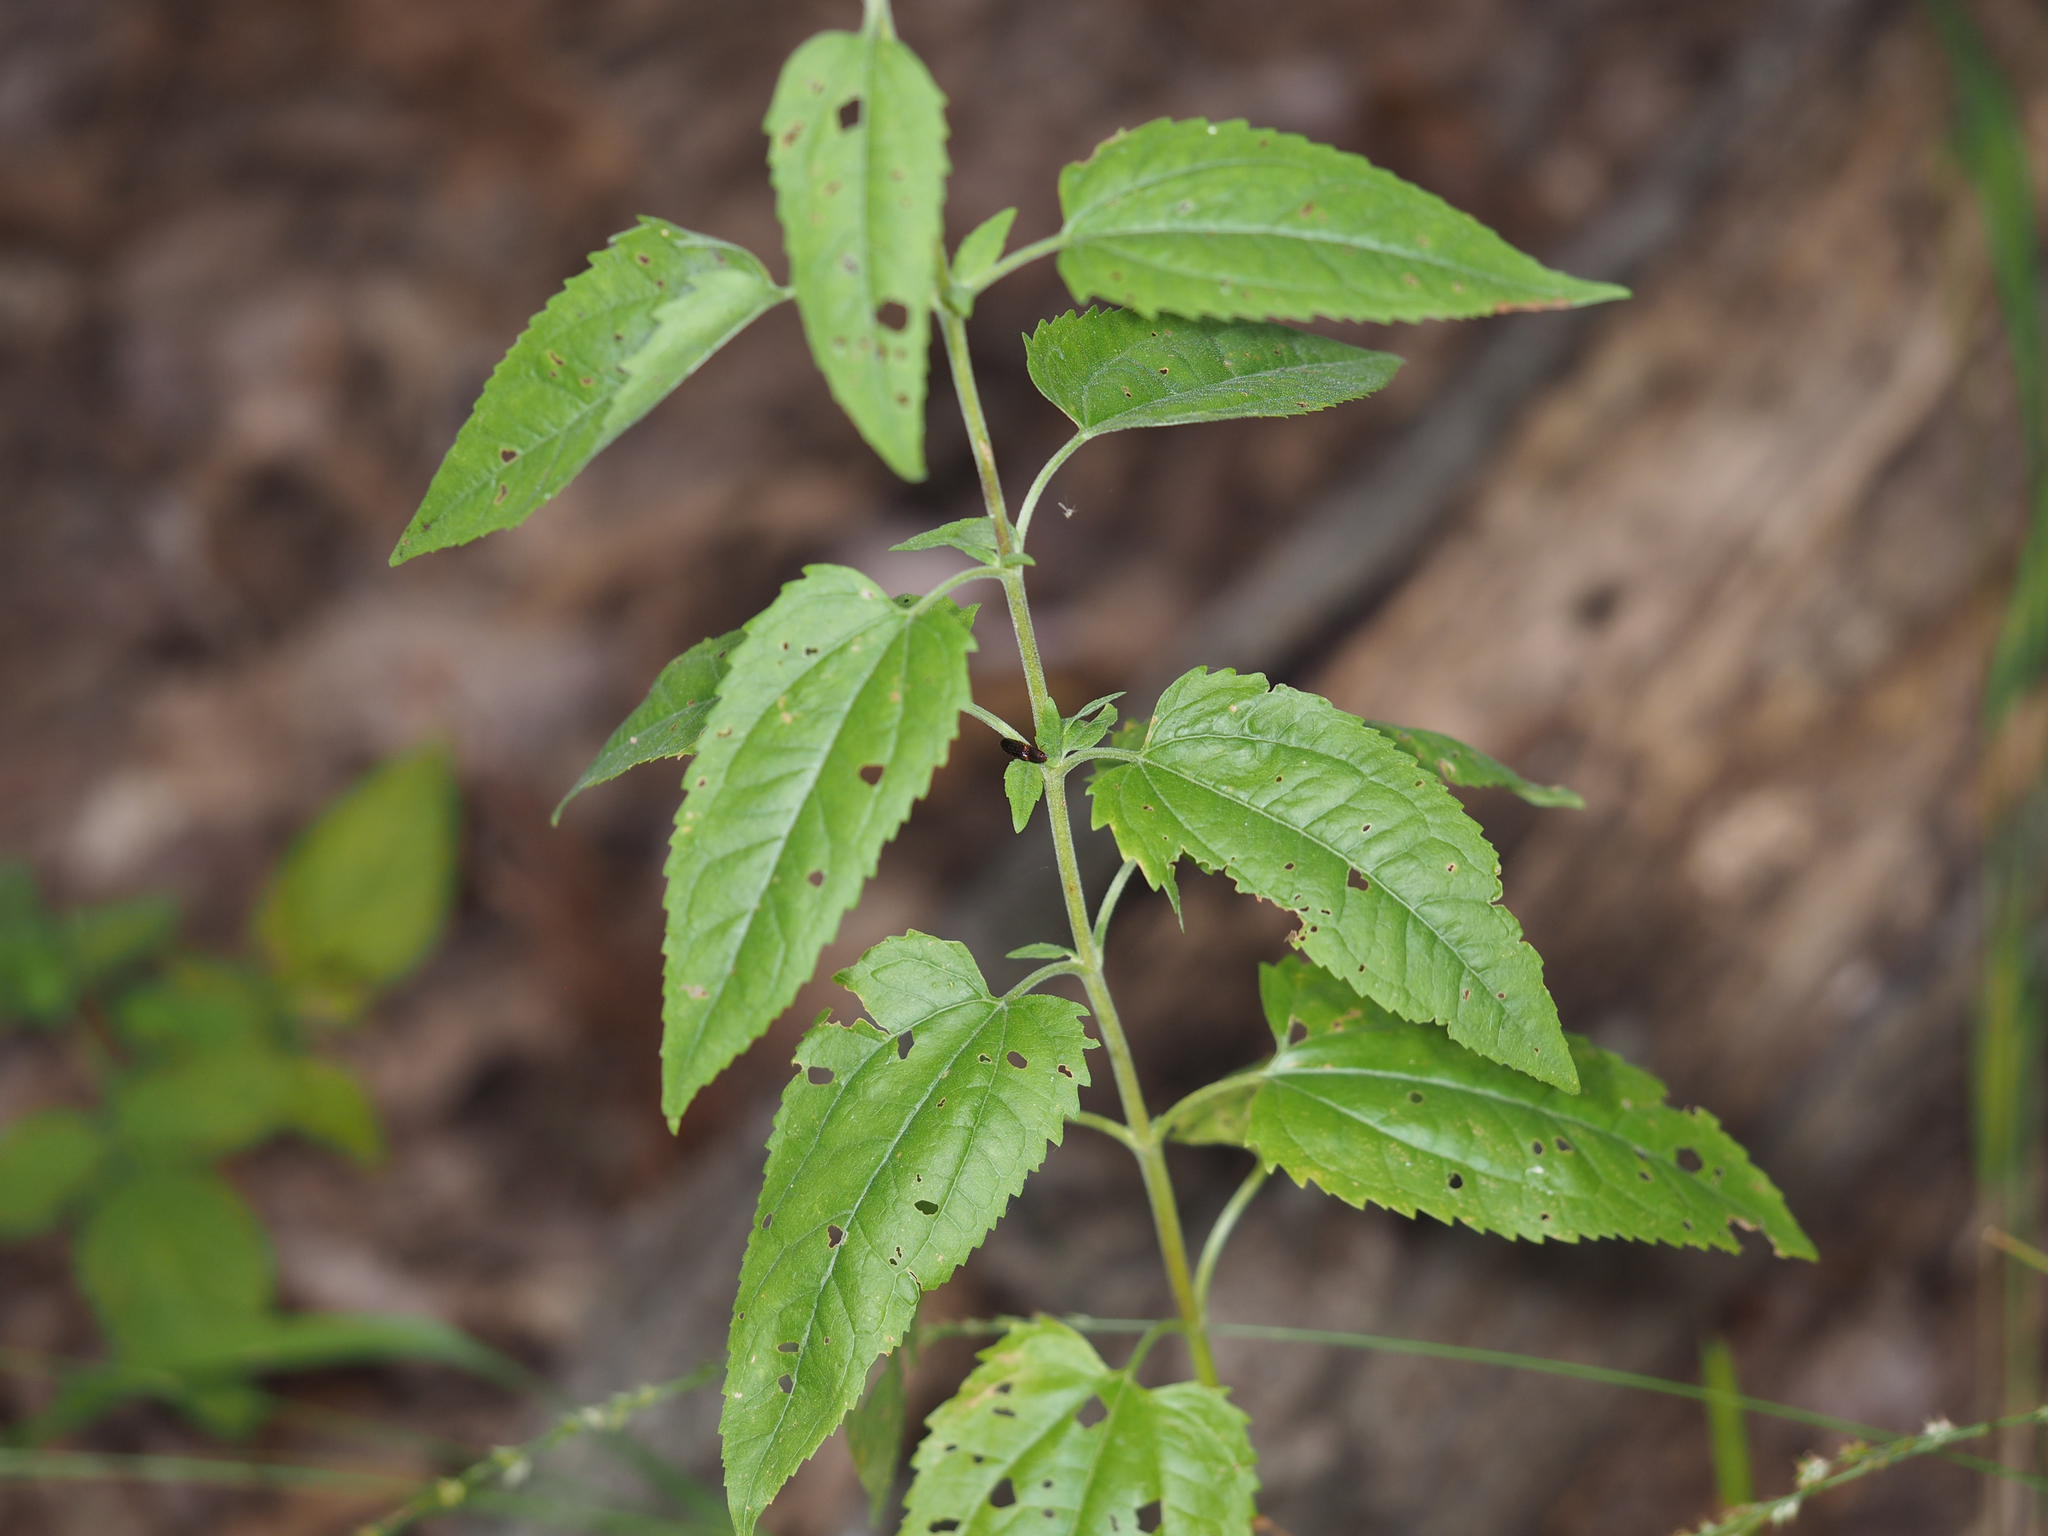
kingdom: Plantae
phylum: Tracheophyta
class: Magnoliopsida
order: Asterales
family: Asteraceae
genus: Eupatorium
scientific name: Eupatorium serotinum
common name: Late boneset
